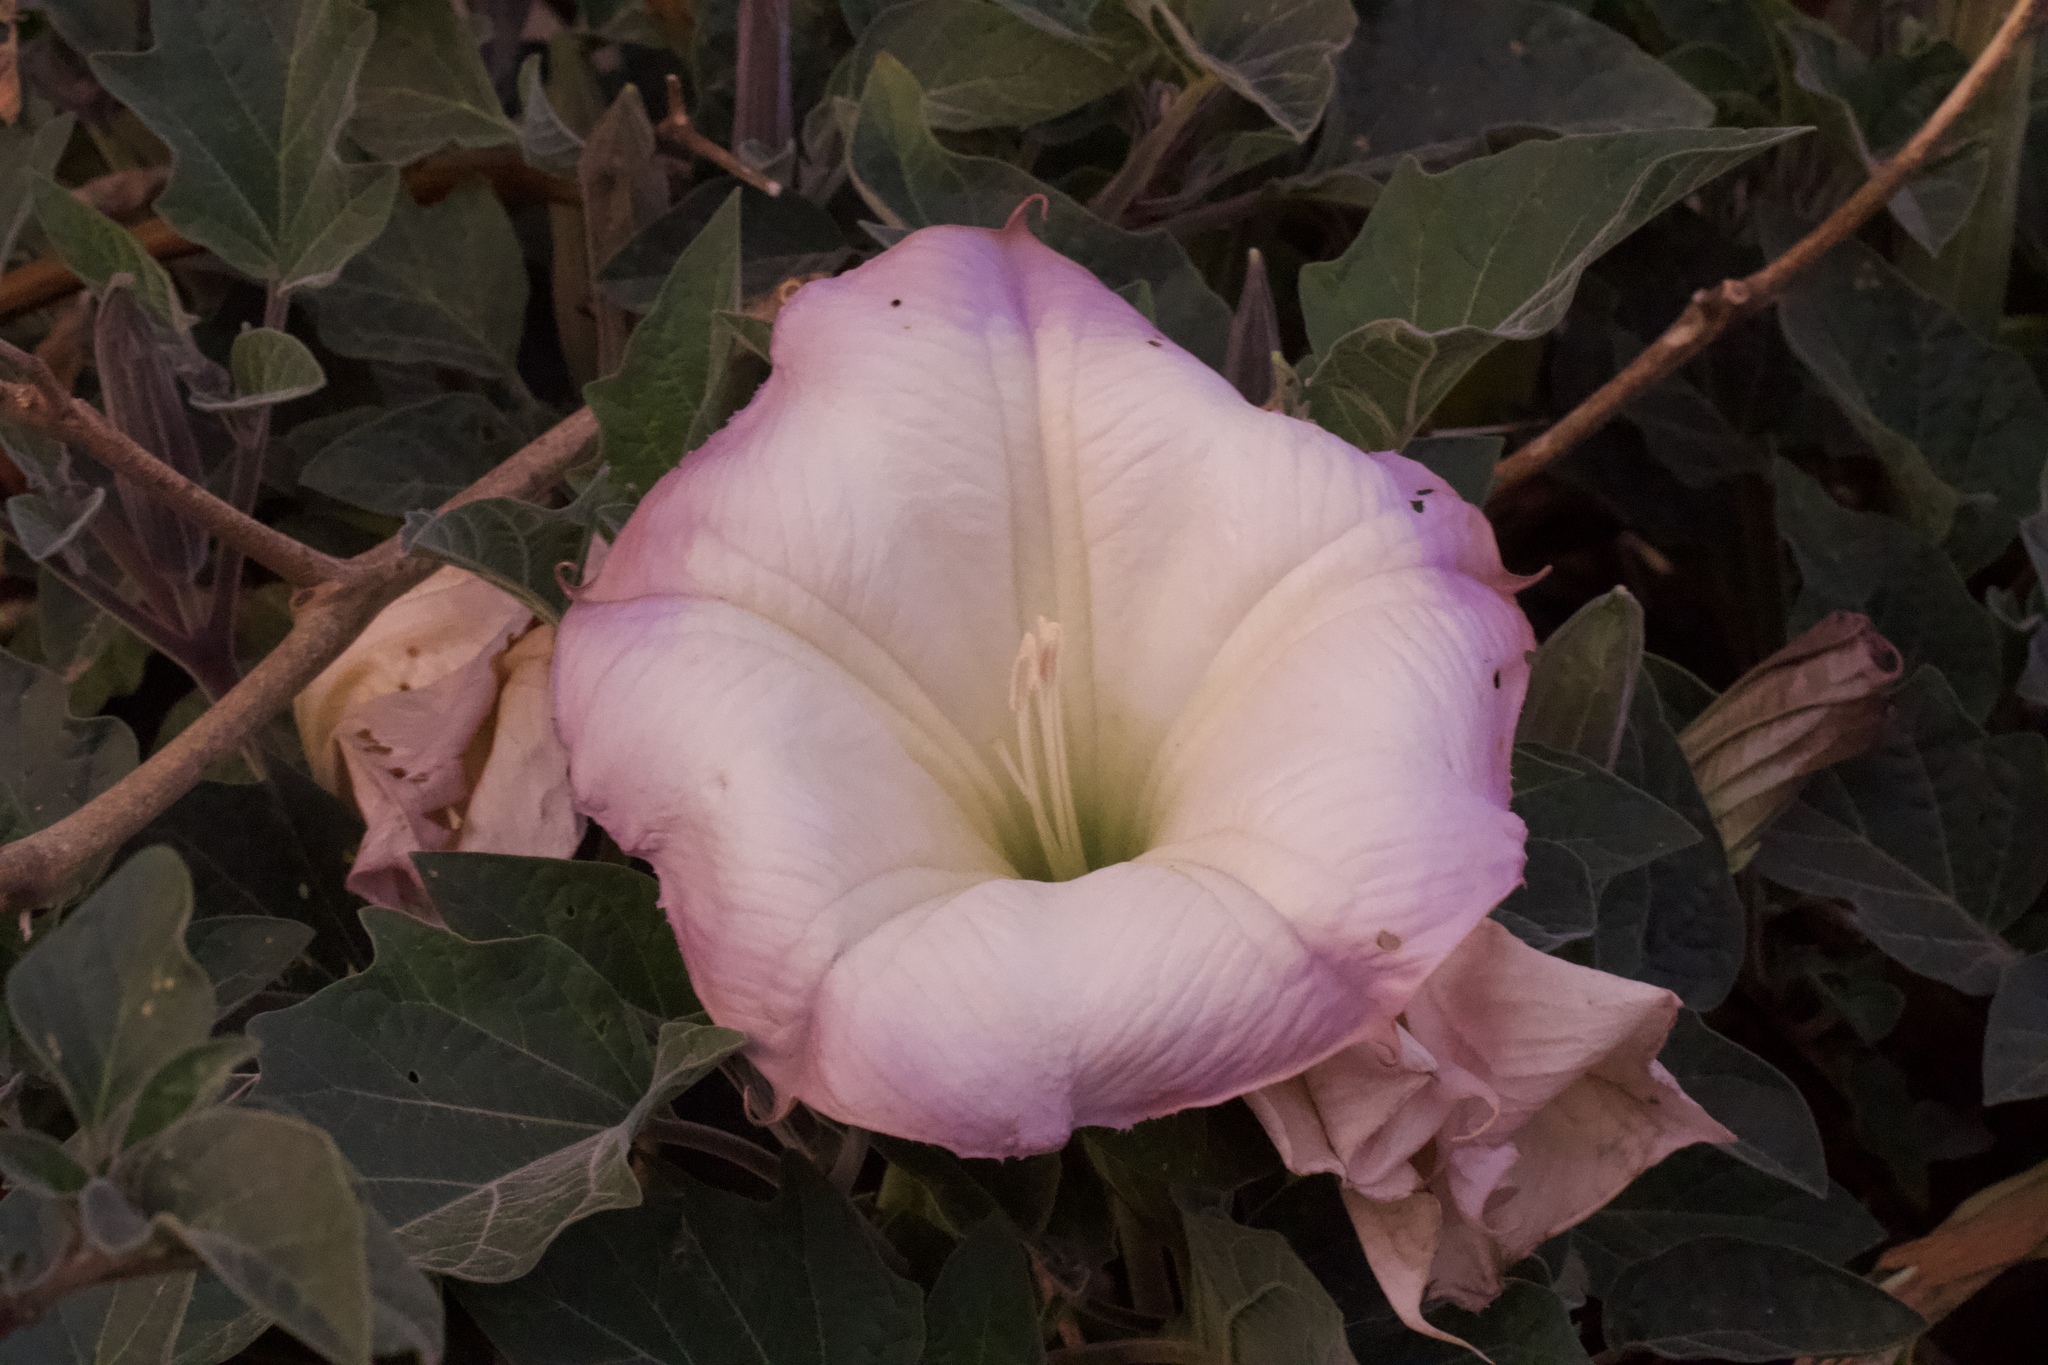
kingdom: Plantae
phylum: Tracheophyta
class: Magnoliopsida
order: Solanales
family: Solanaceae
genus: Datura
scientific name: Datura wrightii
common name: Sacred thorn-apple
